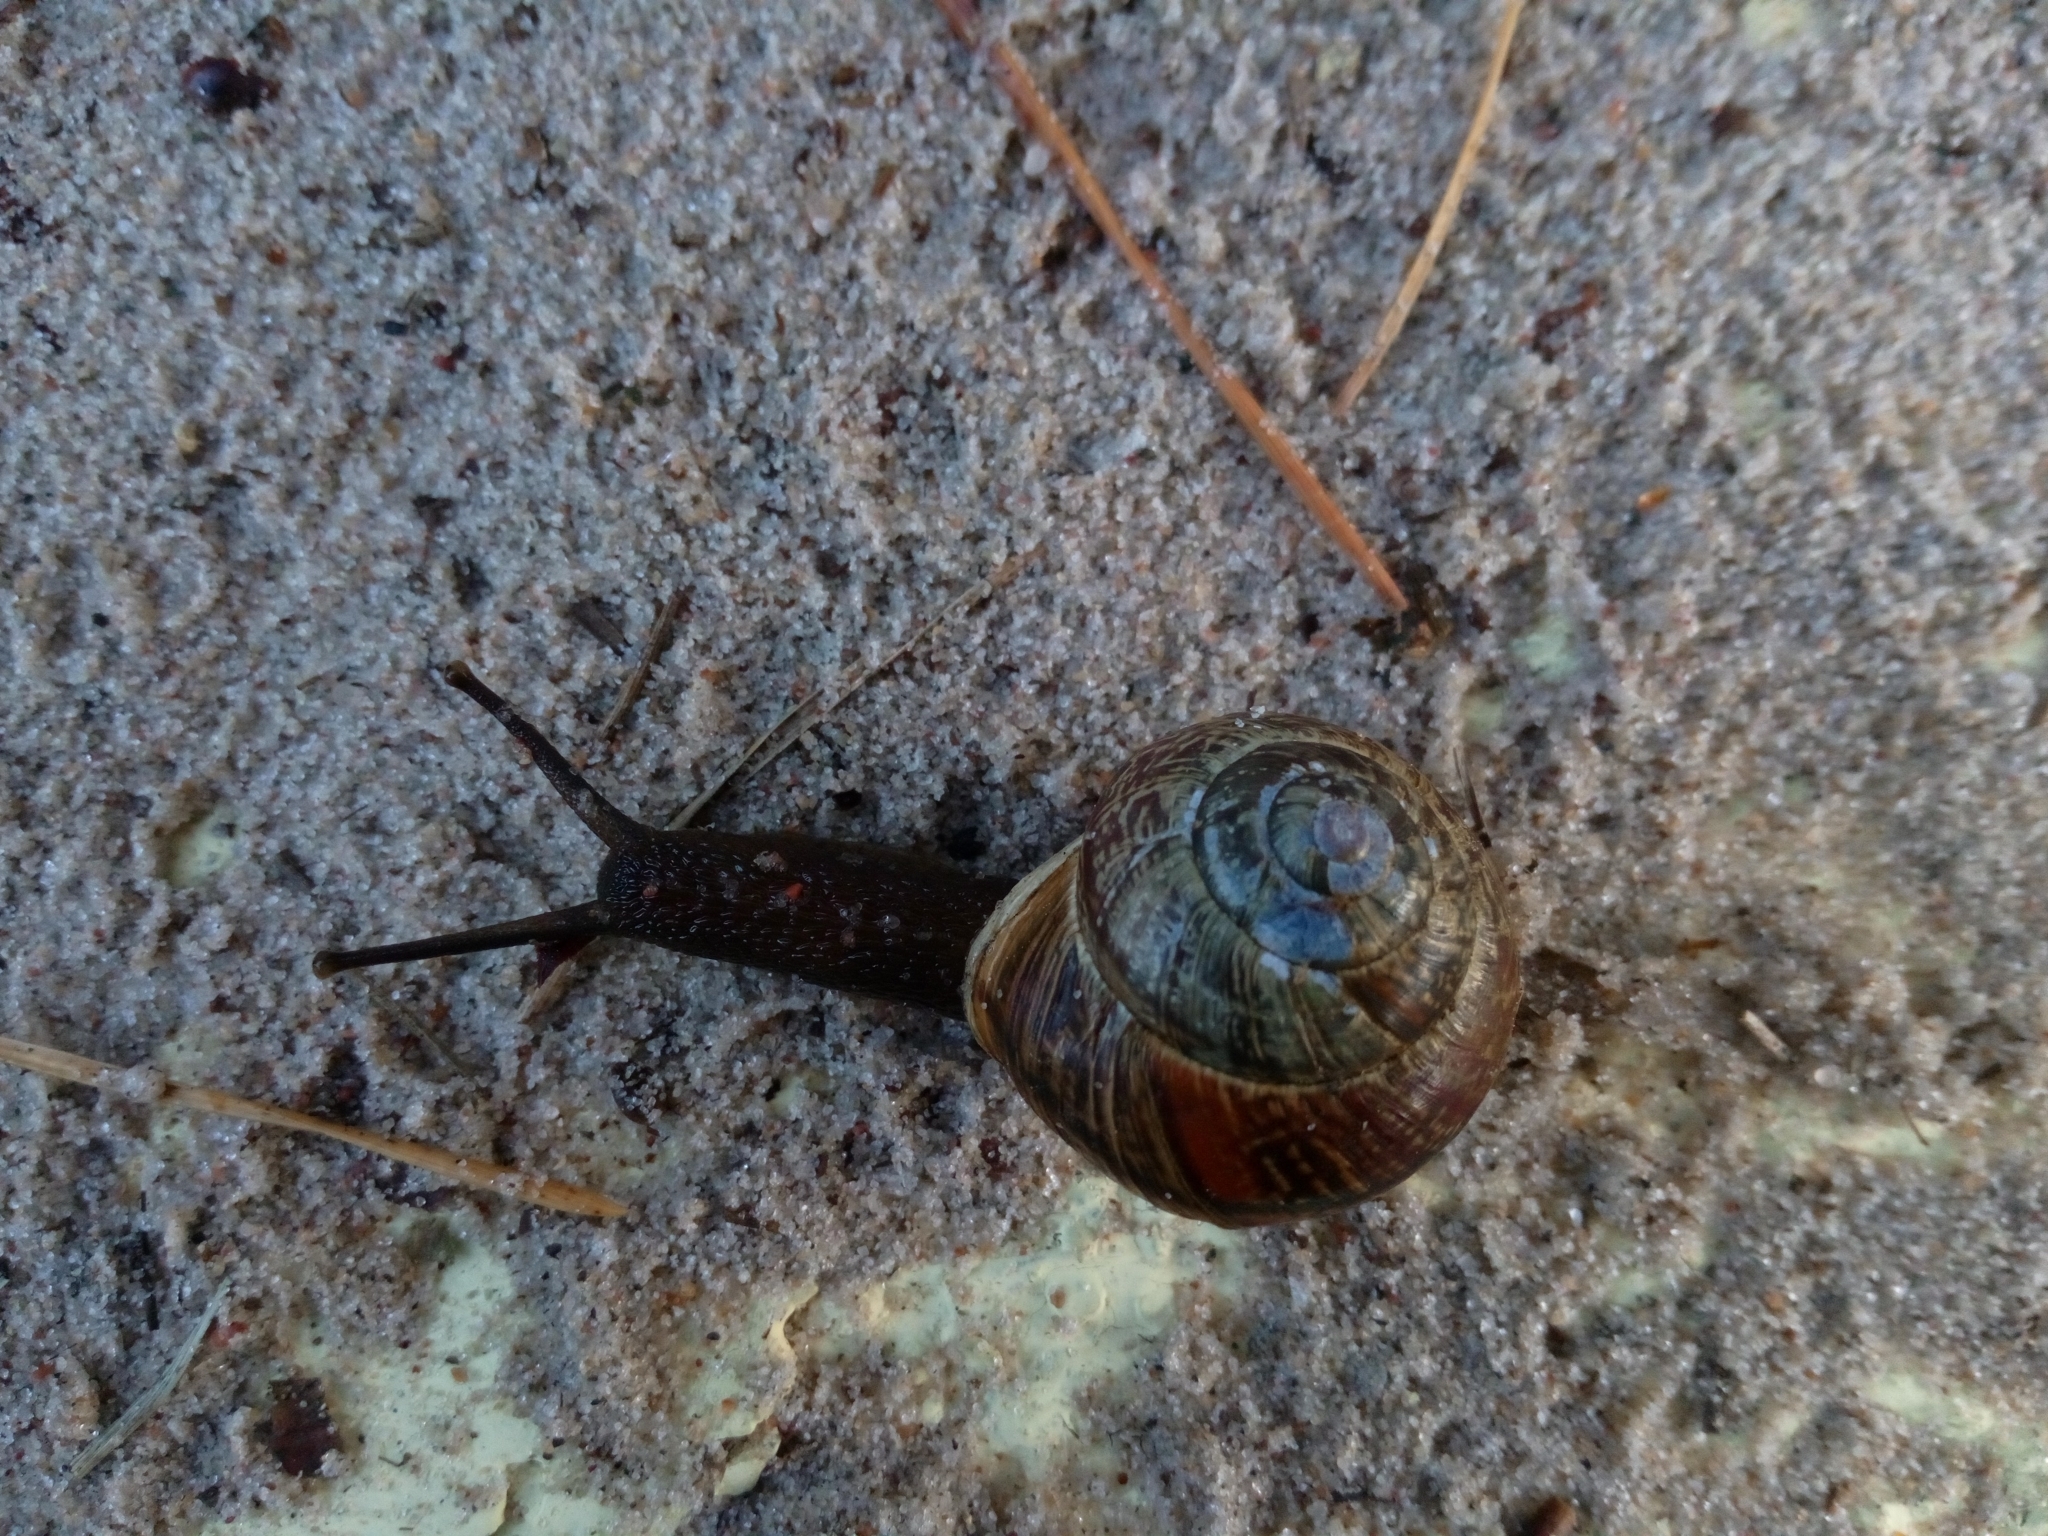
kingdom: Animalia
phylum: Mollusca
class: Gastropoda
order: Stylommatophora
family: Helicidae
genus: Arianta
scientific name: Arianta arbustorum
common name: Copse snail
